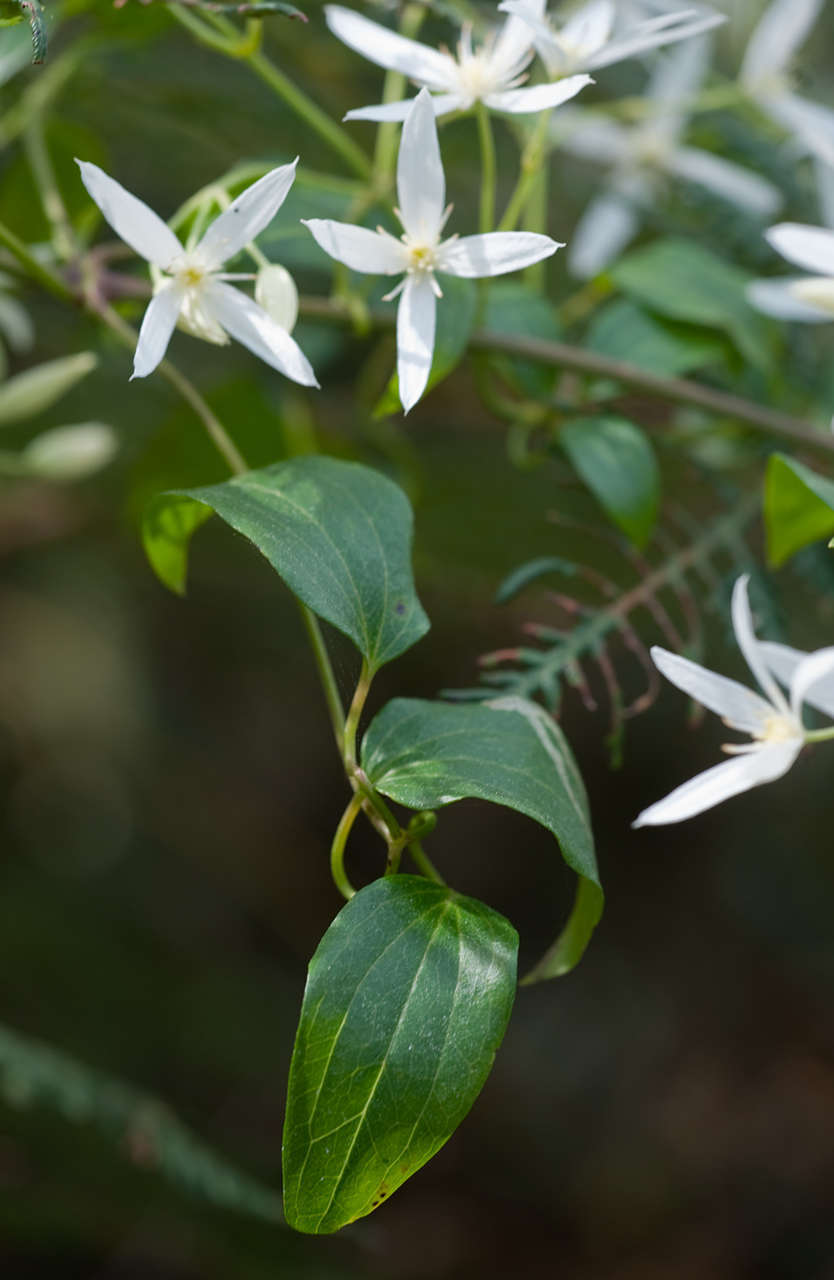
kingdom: Plantae
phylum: Tracheophyta
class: Magnoliopsida
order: Ranunculales
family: Ranunculaceae
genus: Clematis
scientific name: Clematis glycinoides
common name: Forest clematis
